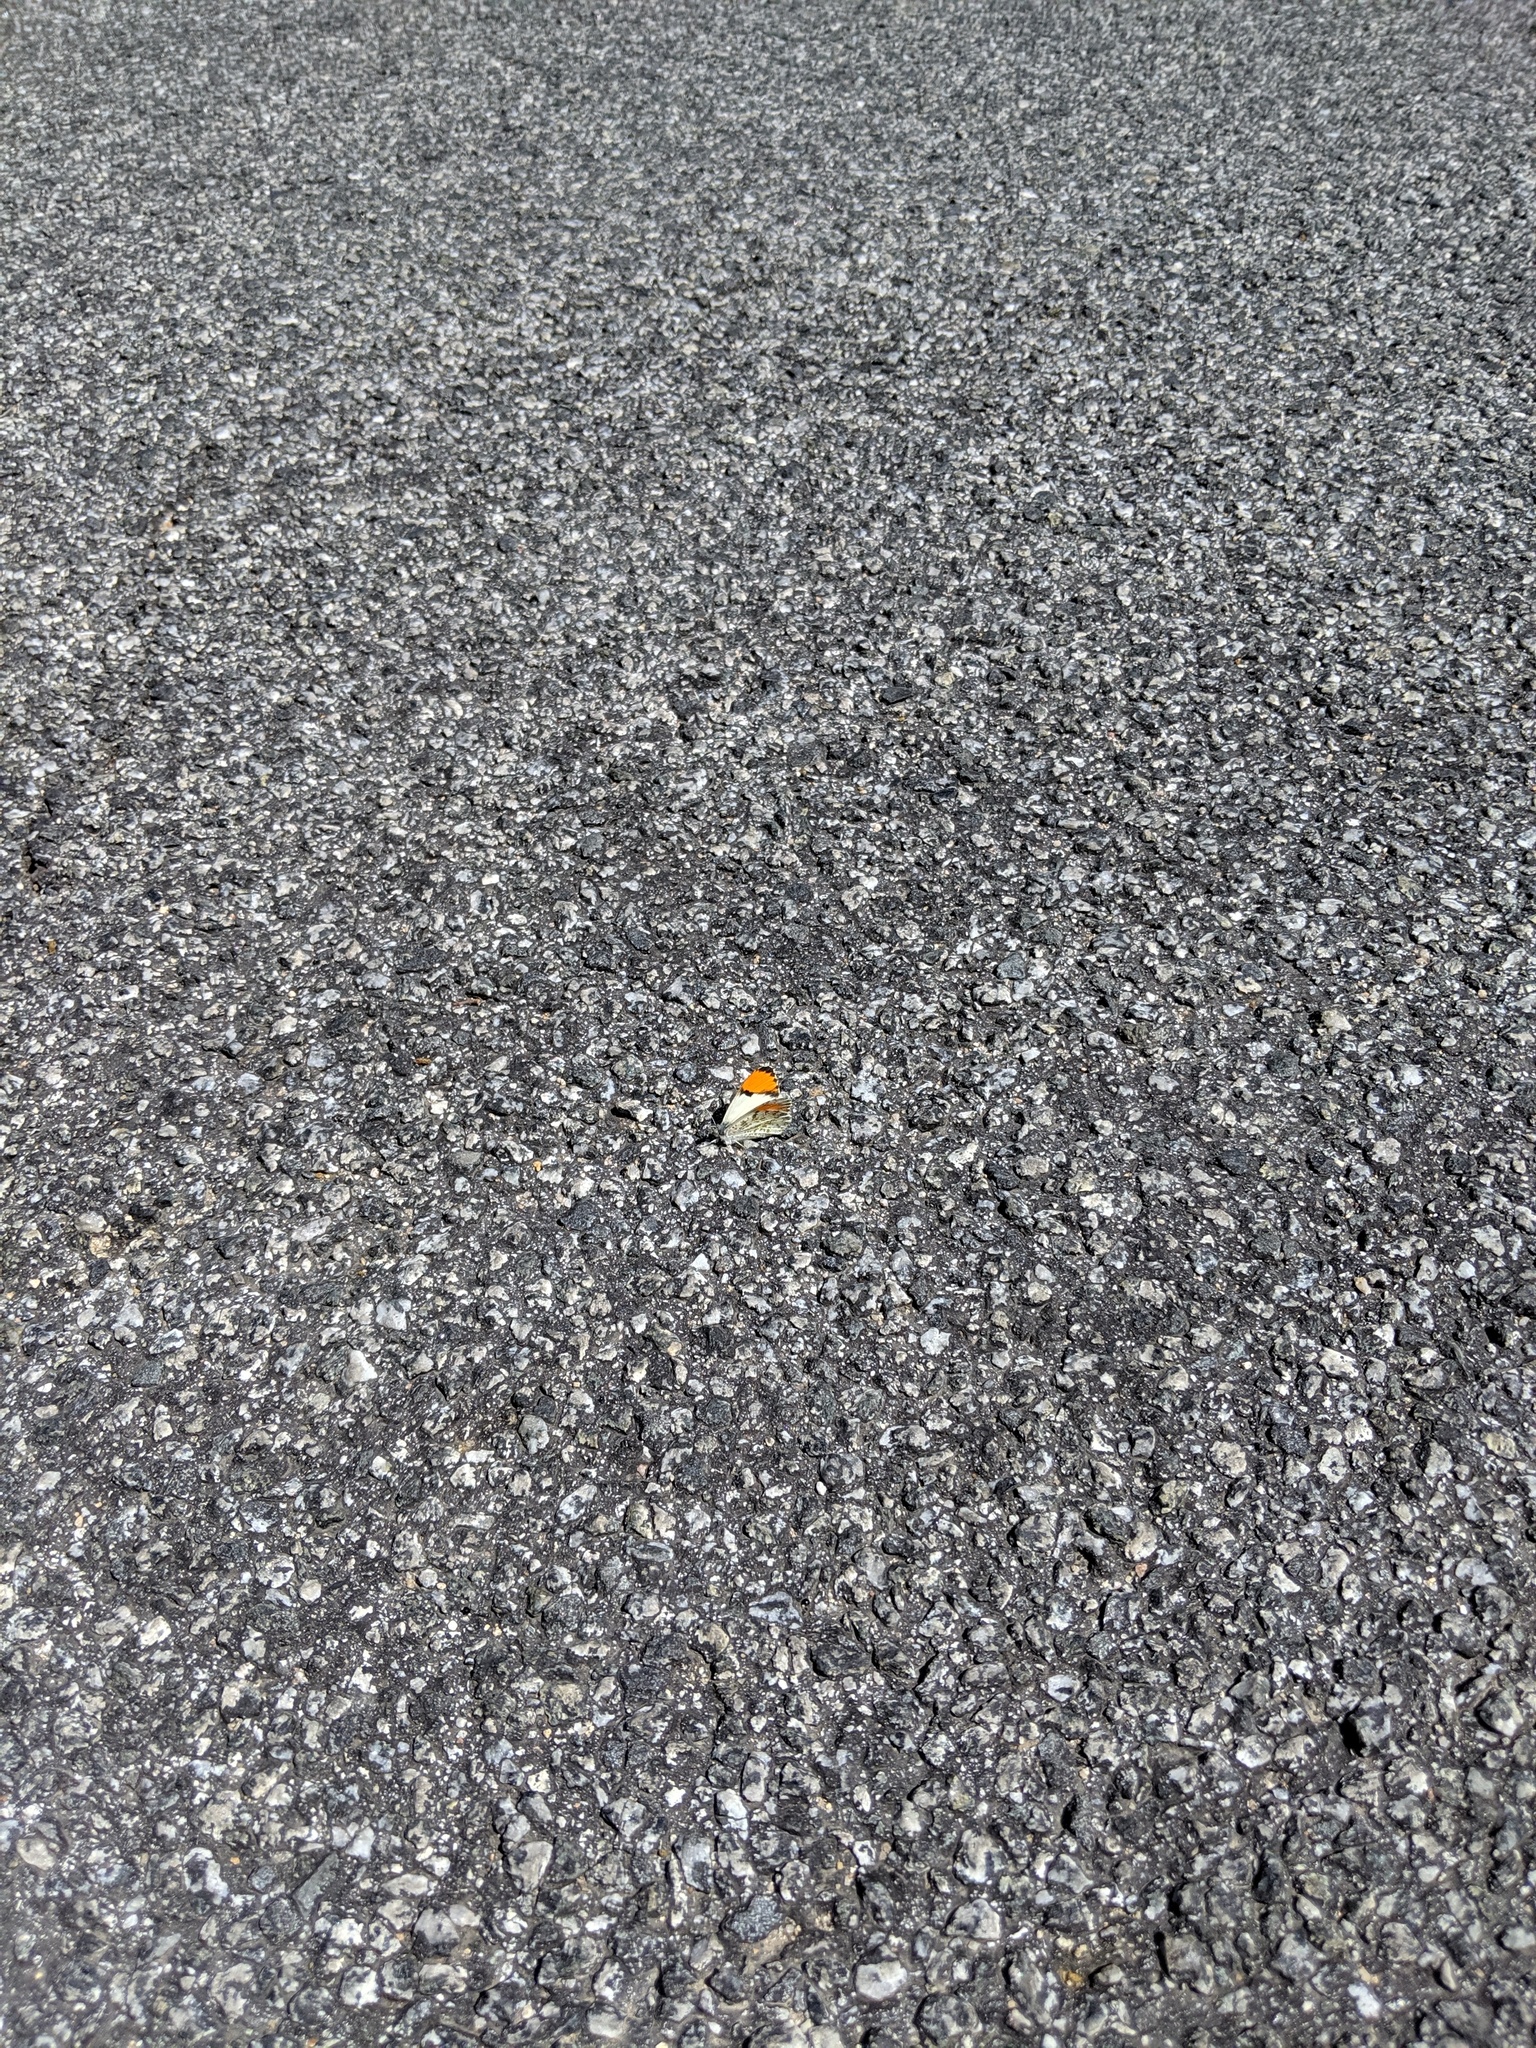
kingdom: Animalia
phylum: Arthropoda
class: Insecta
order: Lepidoptera
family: Pieridae
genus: Anthocharis
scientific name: Anthocharis sara
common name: Sara's orangetip
